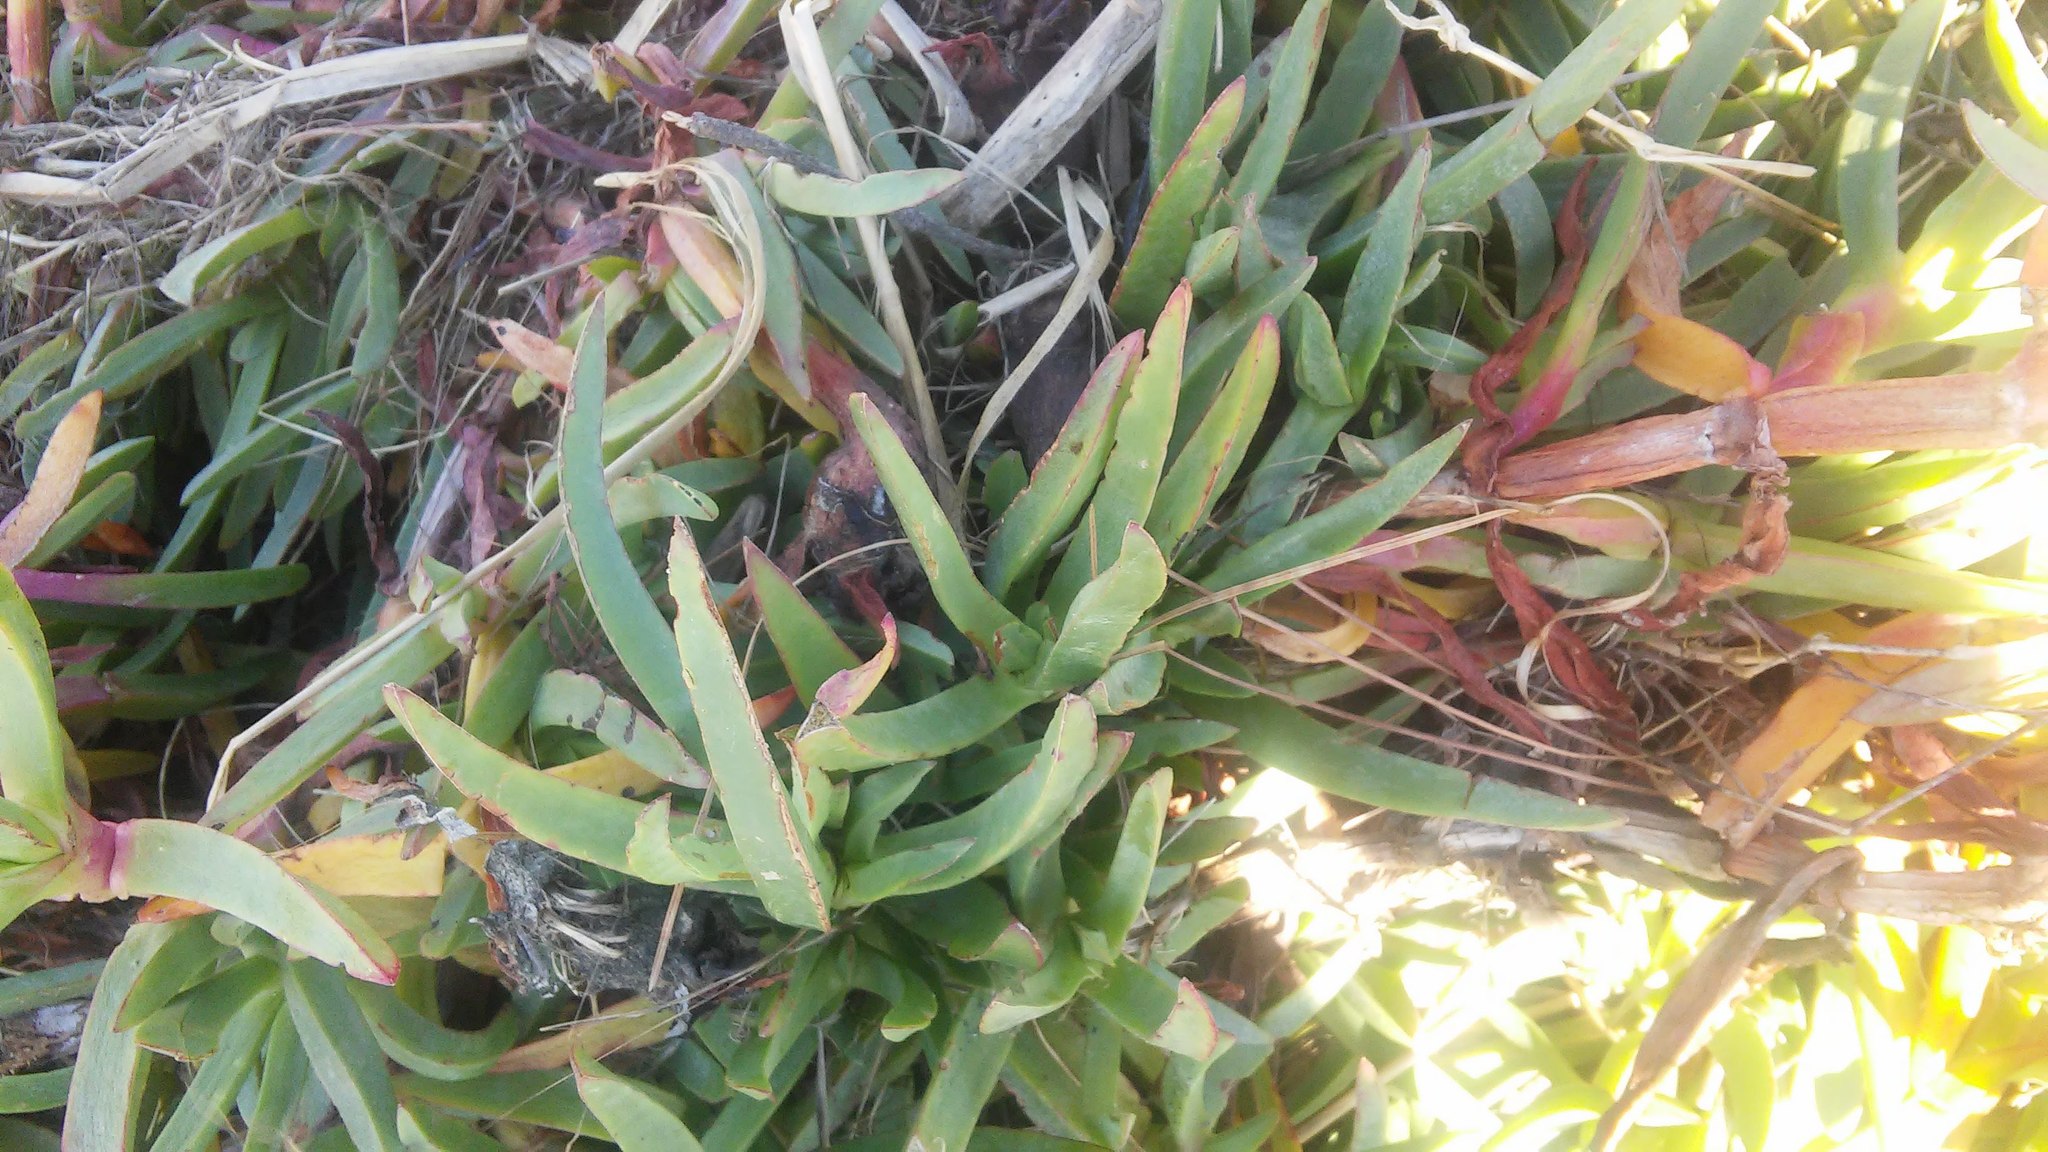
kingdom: Plantae
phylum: Tracheophyta
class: Magnoliopsida
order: Caryophyllales
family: Aizoaceae
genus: Carpobrotus
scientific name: Carpobrotus edulis
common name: Hottentot-fig
